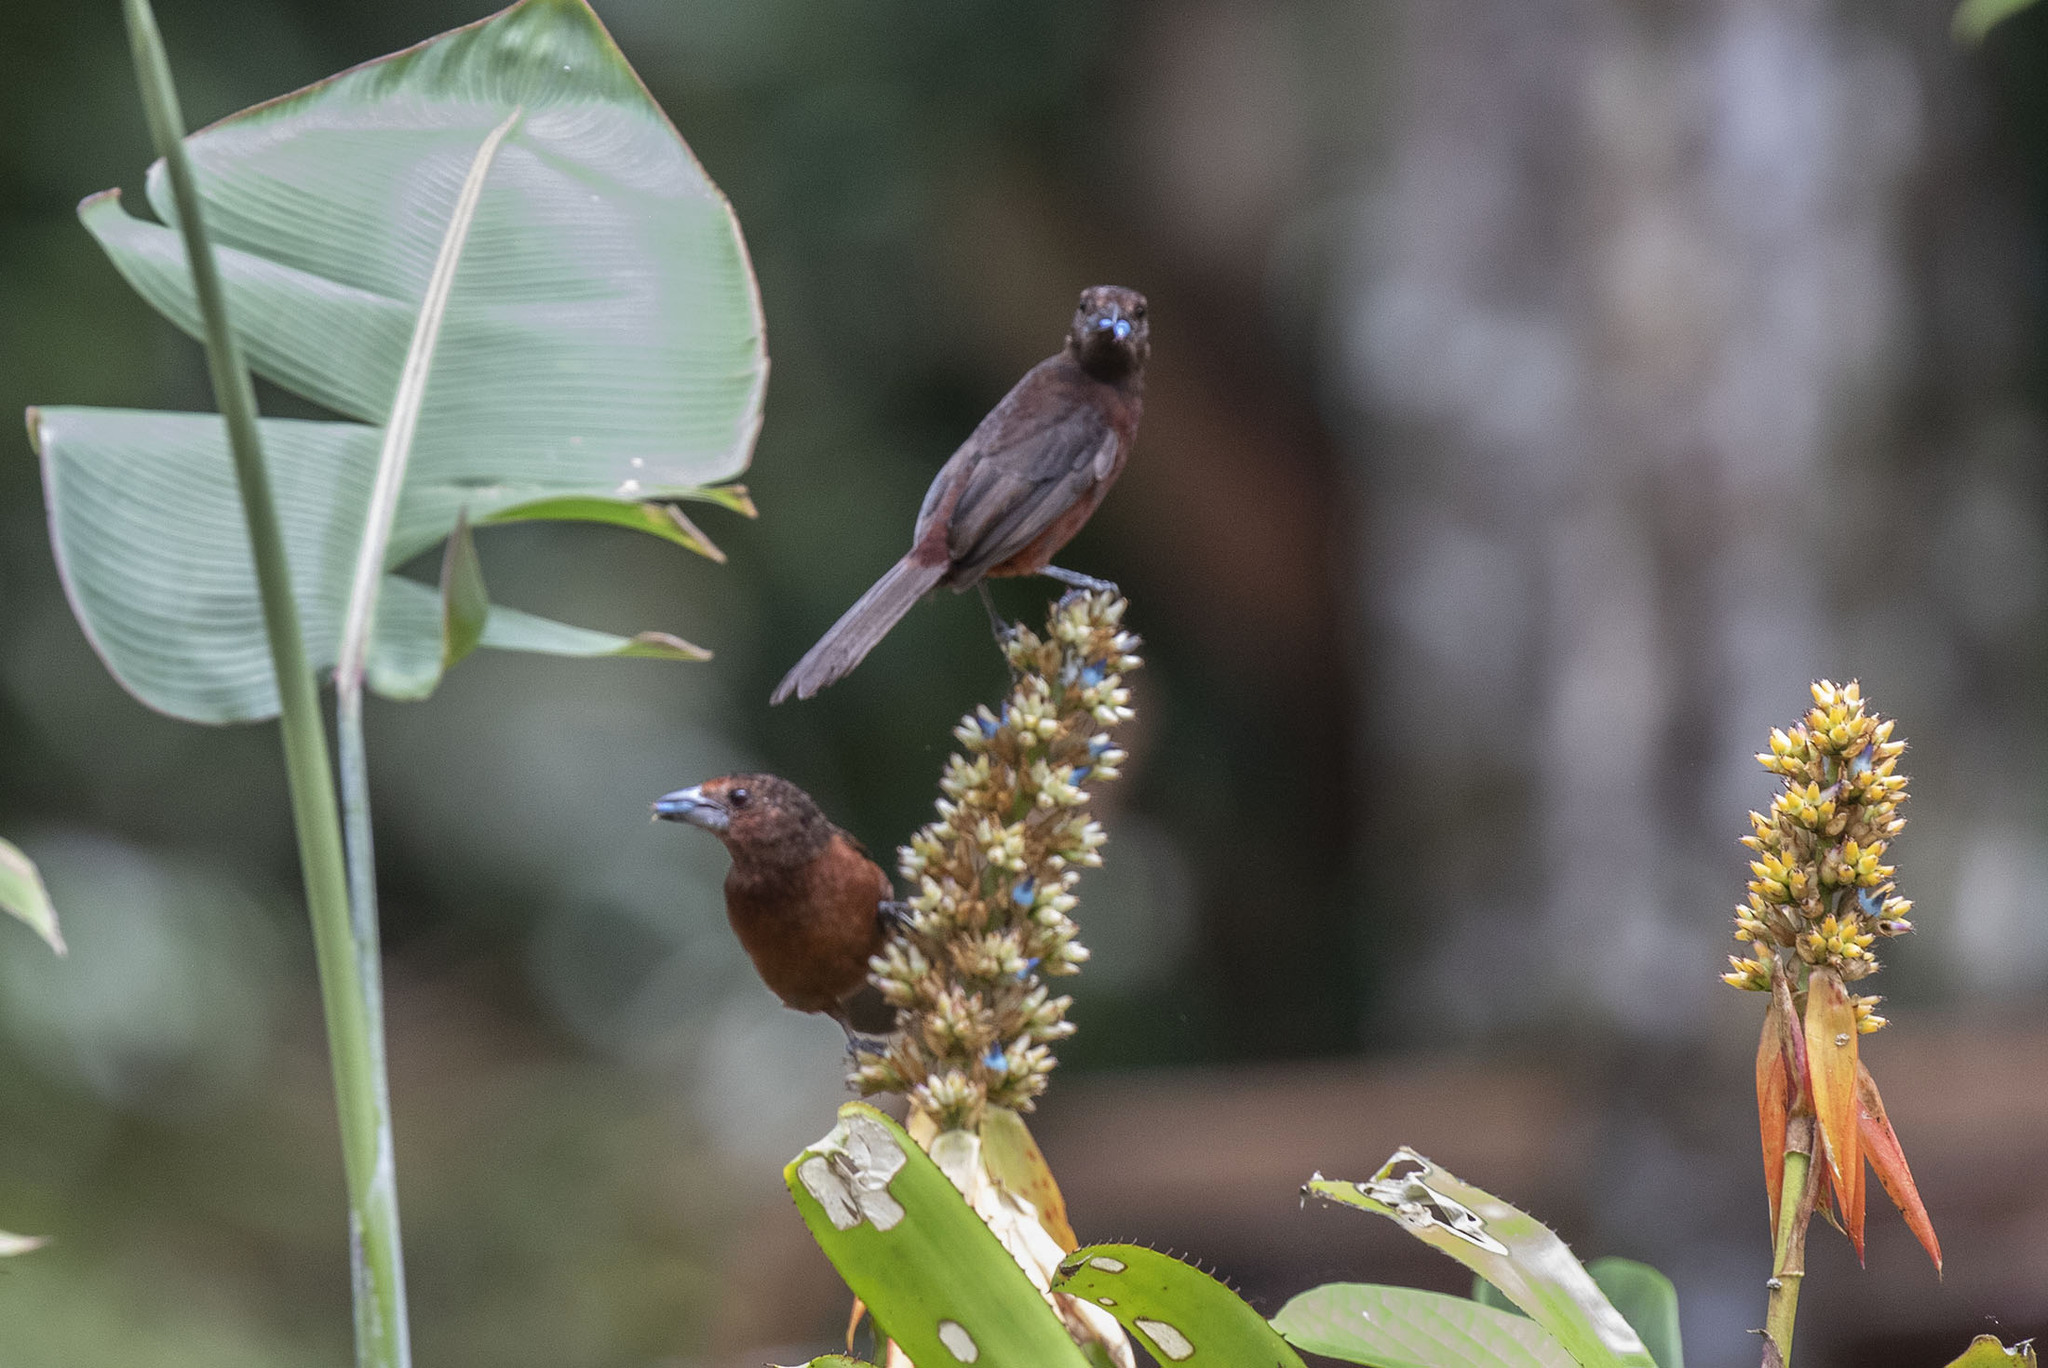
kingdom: Plantae
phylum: Tracheophyta
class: Liliopsida
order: Poales
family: Bromeliaceae
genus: Aechmea
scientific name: Aechmea mertensii
